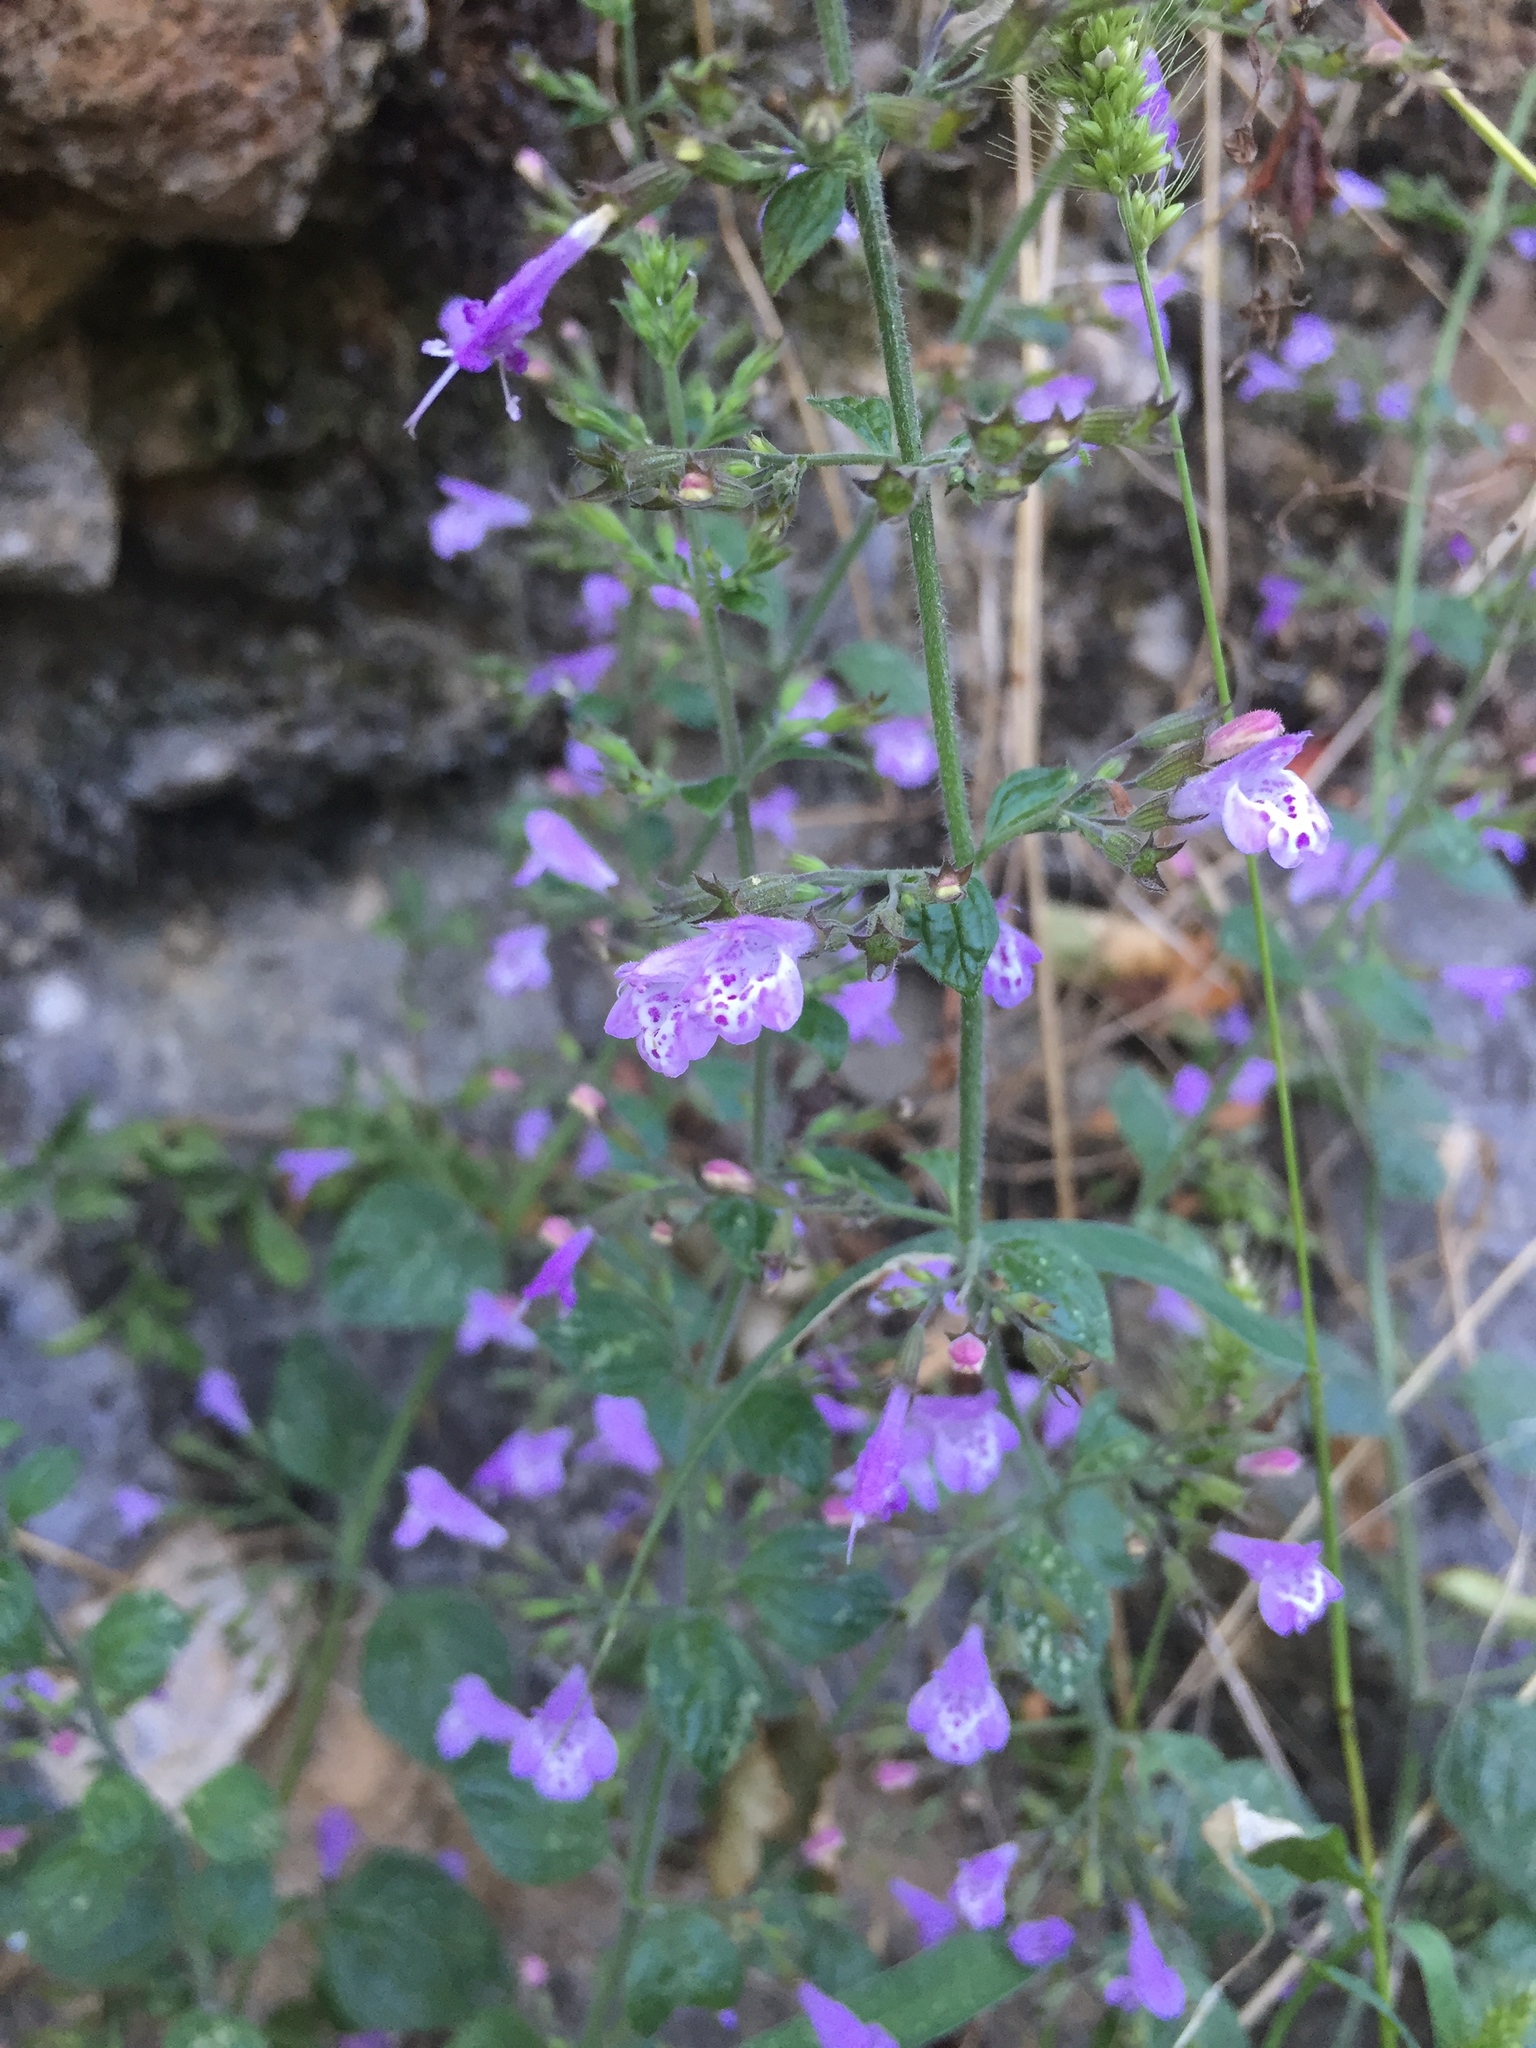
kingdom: Plantae
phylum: Tracheophyta
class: Magnoliopsida
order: Lamiales
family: Lamiaceae
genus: Clinopodium
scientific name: Clinopodium menthifolium
